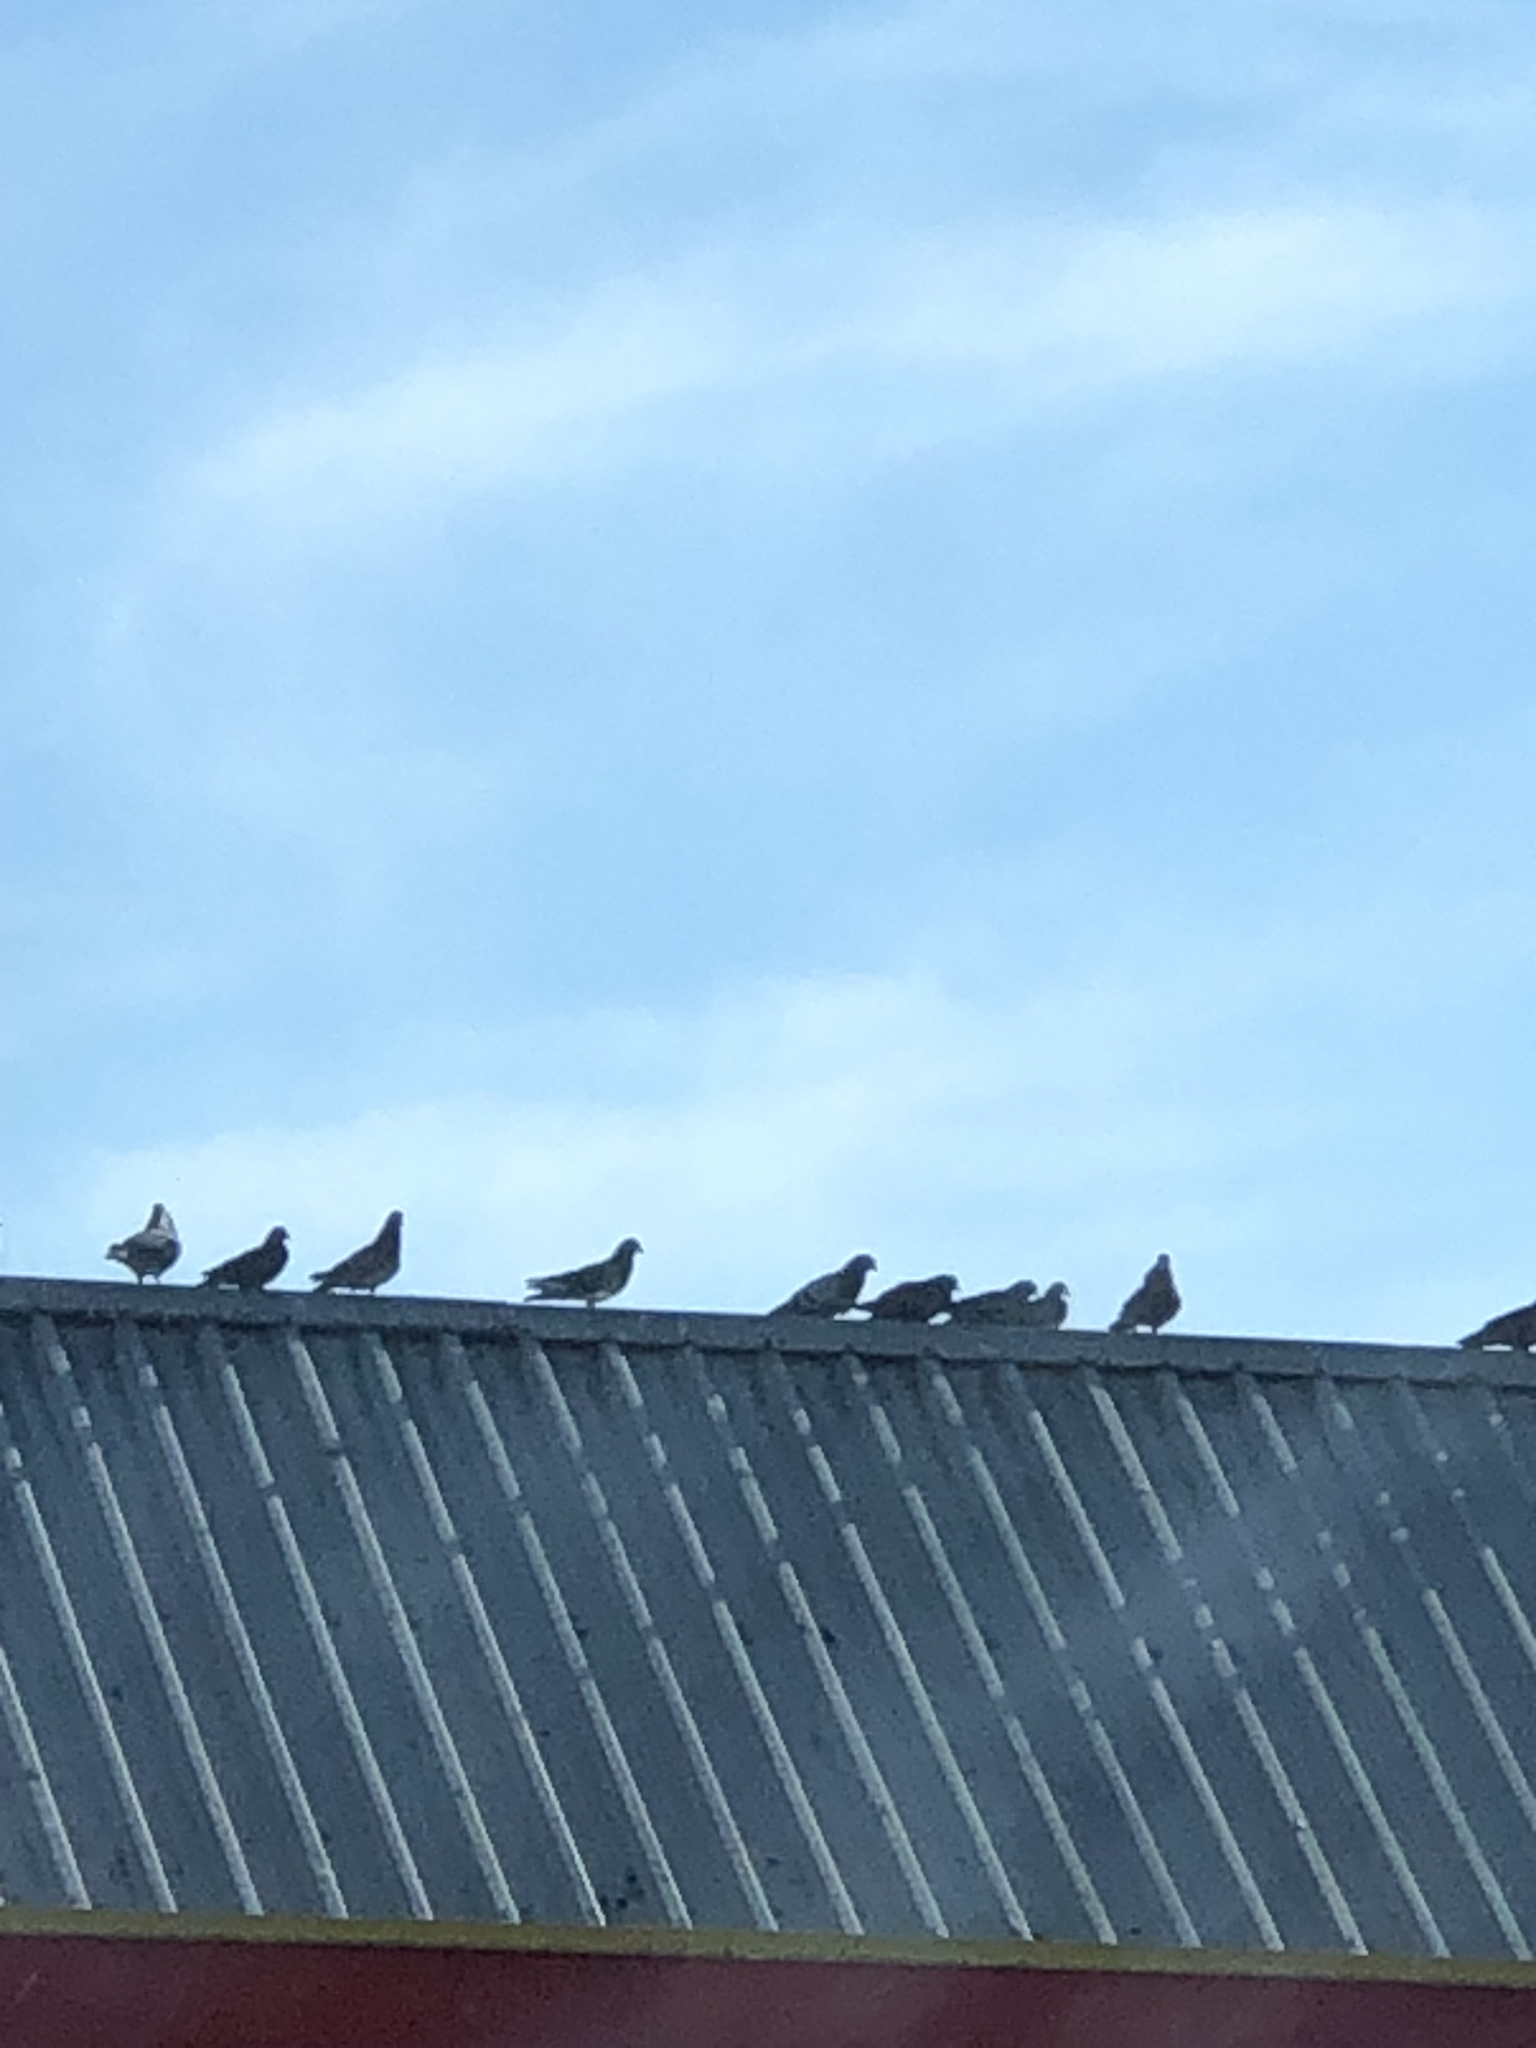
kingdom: Animalia
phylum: Chordata
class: Aves
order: Columbiformes
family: Columbidae
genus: Columba
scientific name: Columba livia
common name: Rock pigeon
